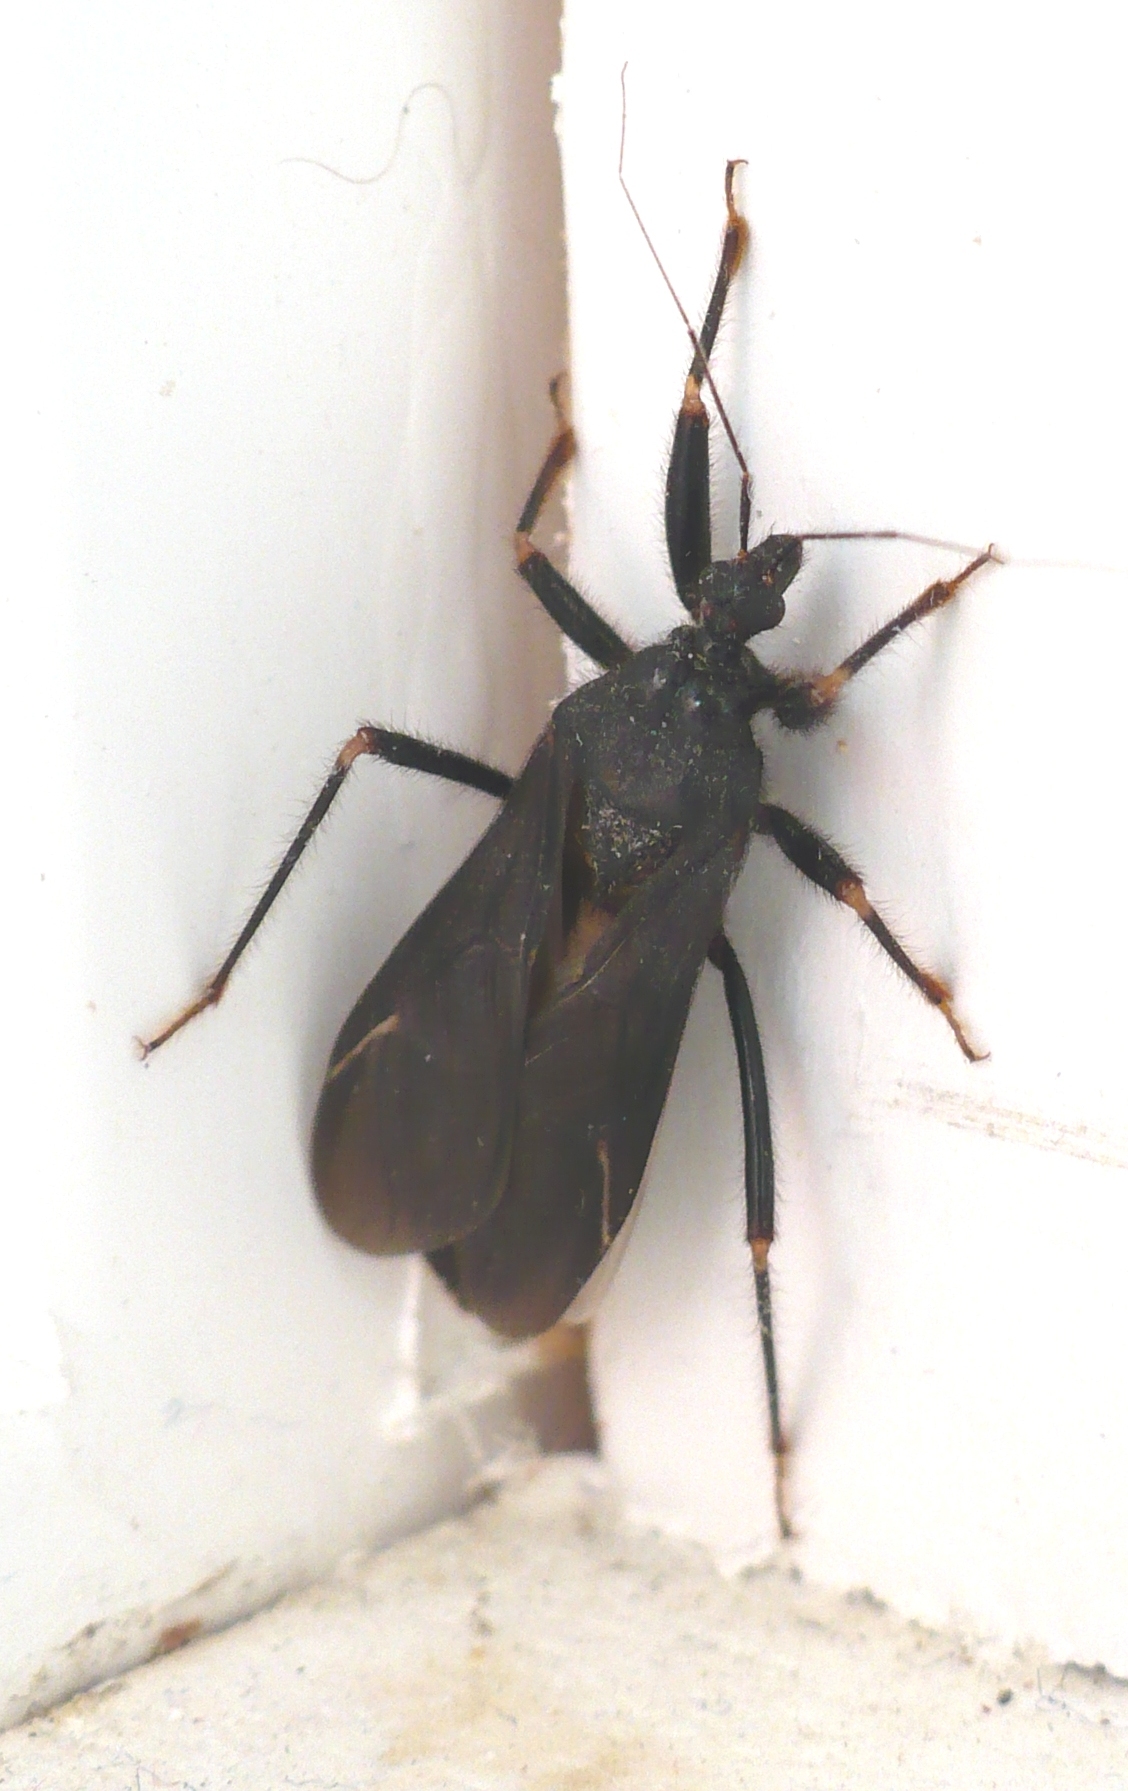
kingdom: Animalia
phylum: Arthropoda
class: Insecta
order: Hemiptera
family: Reduviidae
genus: Reduvius
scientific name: Reduvius personatus
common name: Masked hunter
